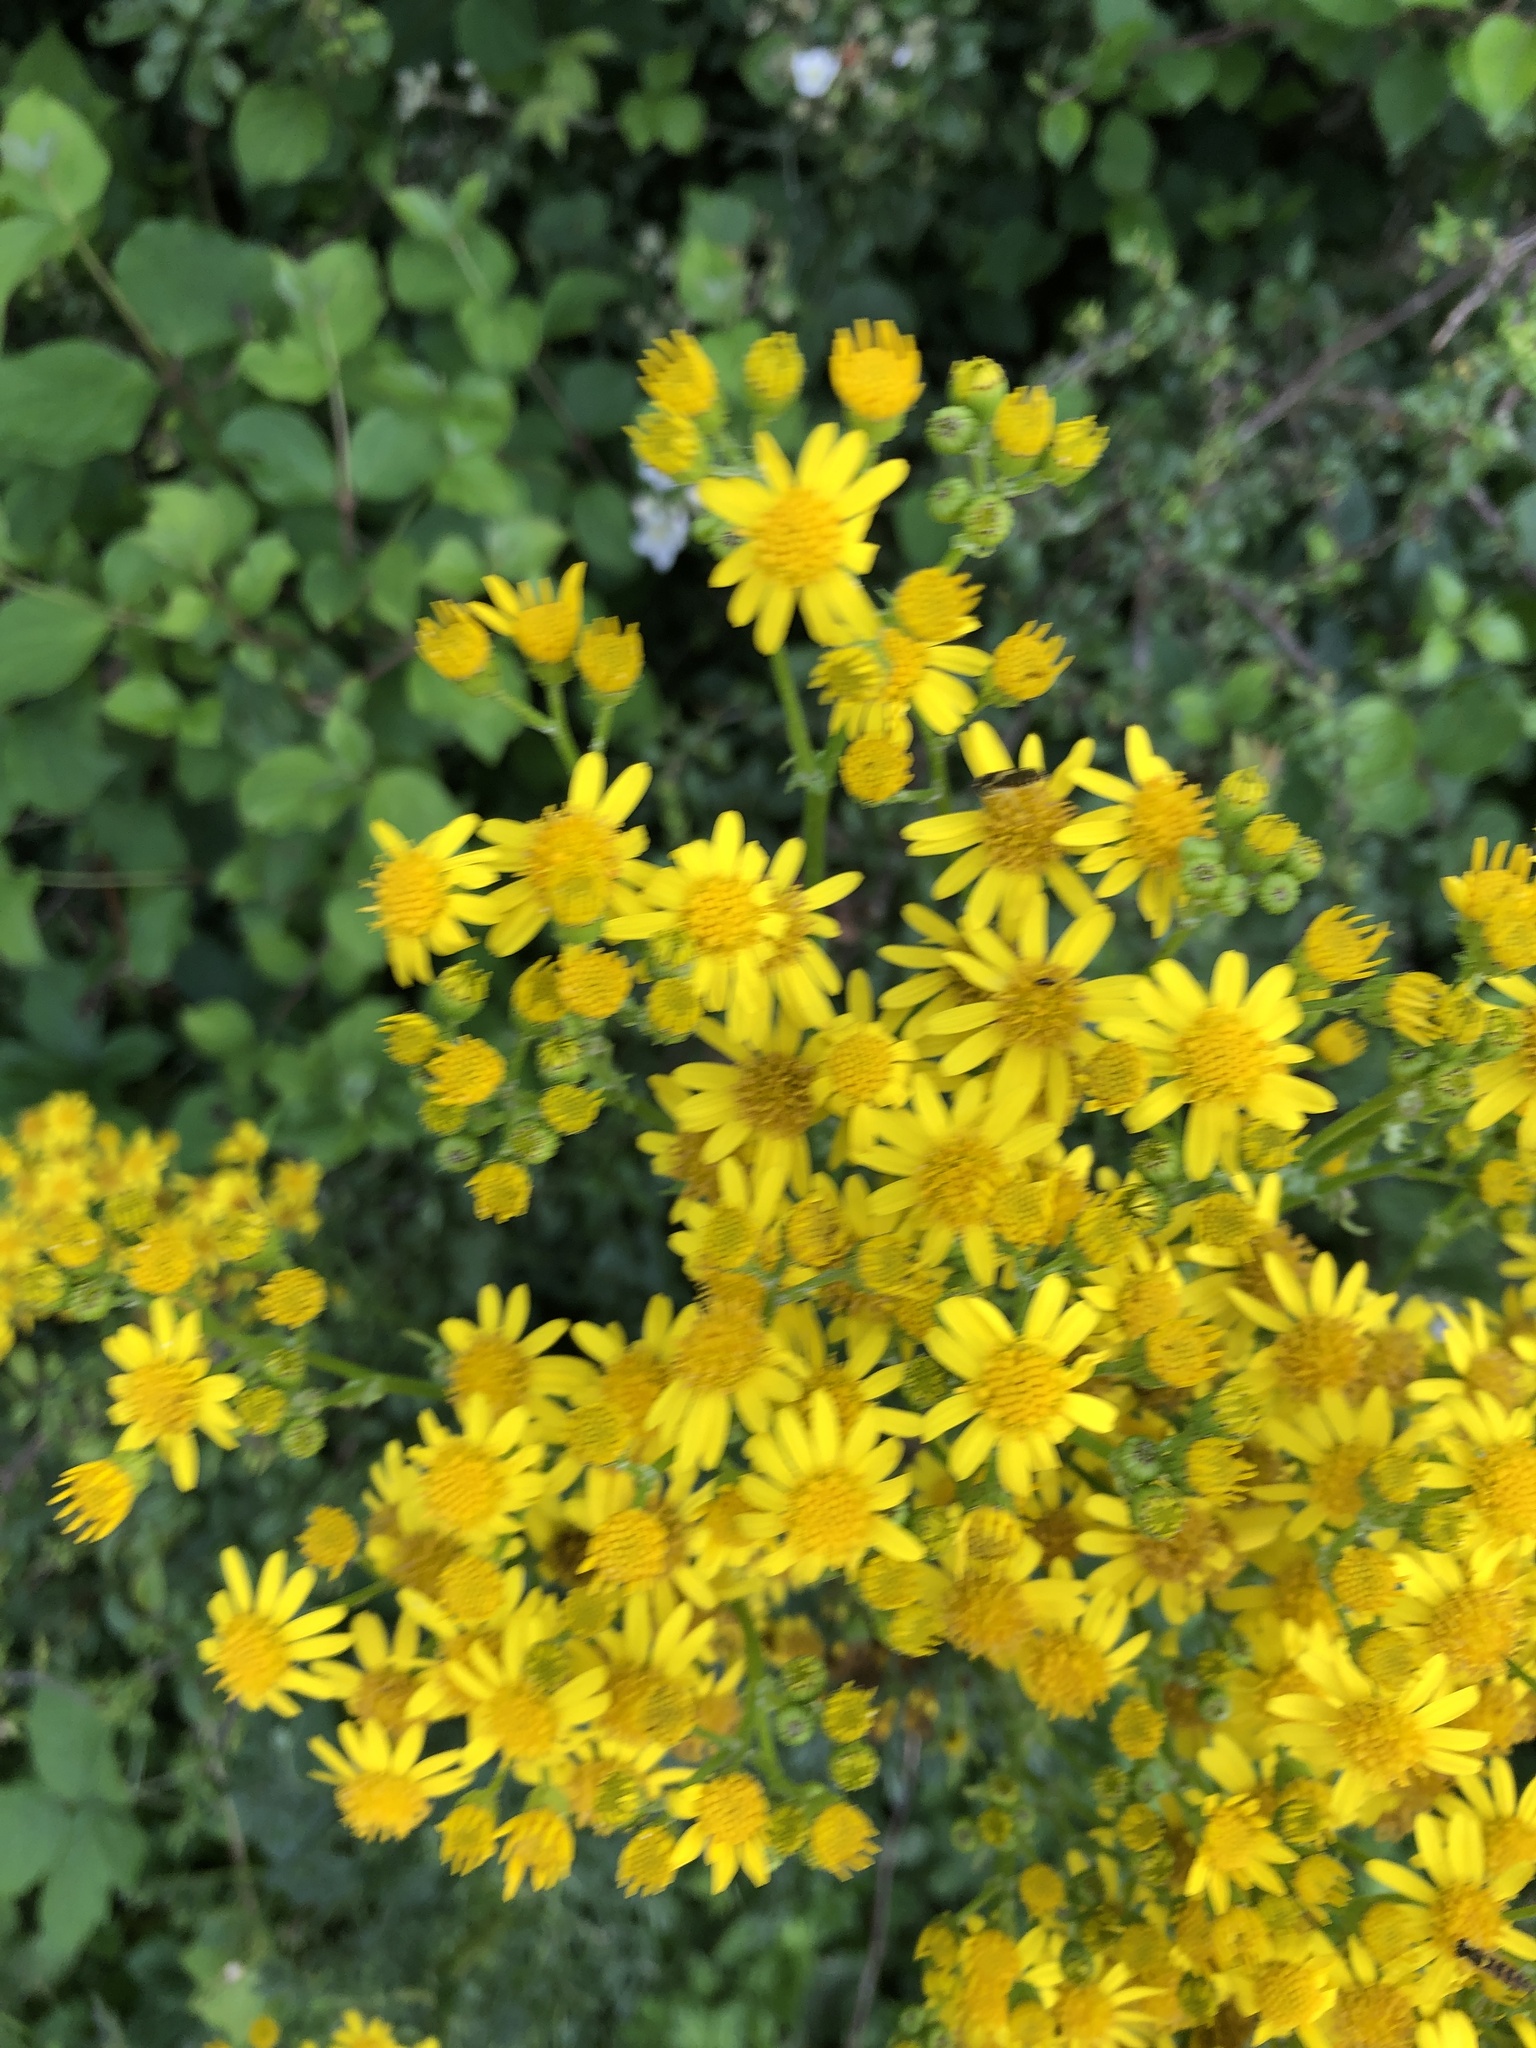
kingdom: Plantae
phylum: Tracheophyta
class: Magnoliopsida
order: Asterales
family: Asteraceae
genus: Jacobaea
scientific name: Jacobaea vulgaris
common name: Stinking willie
